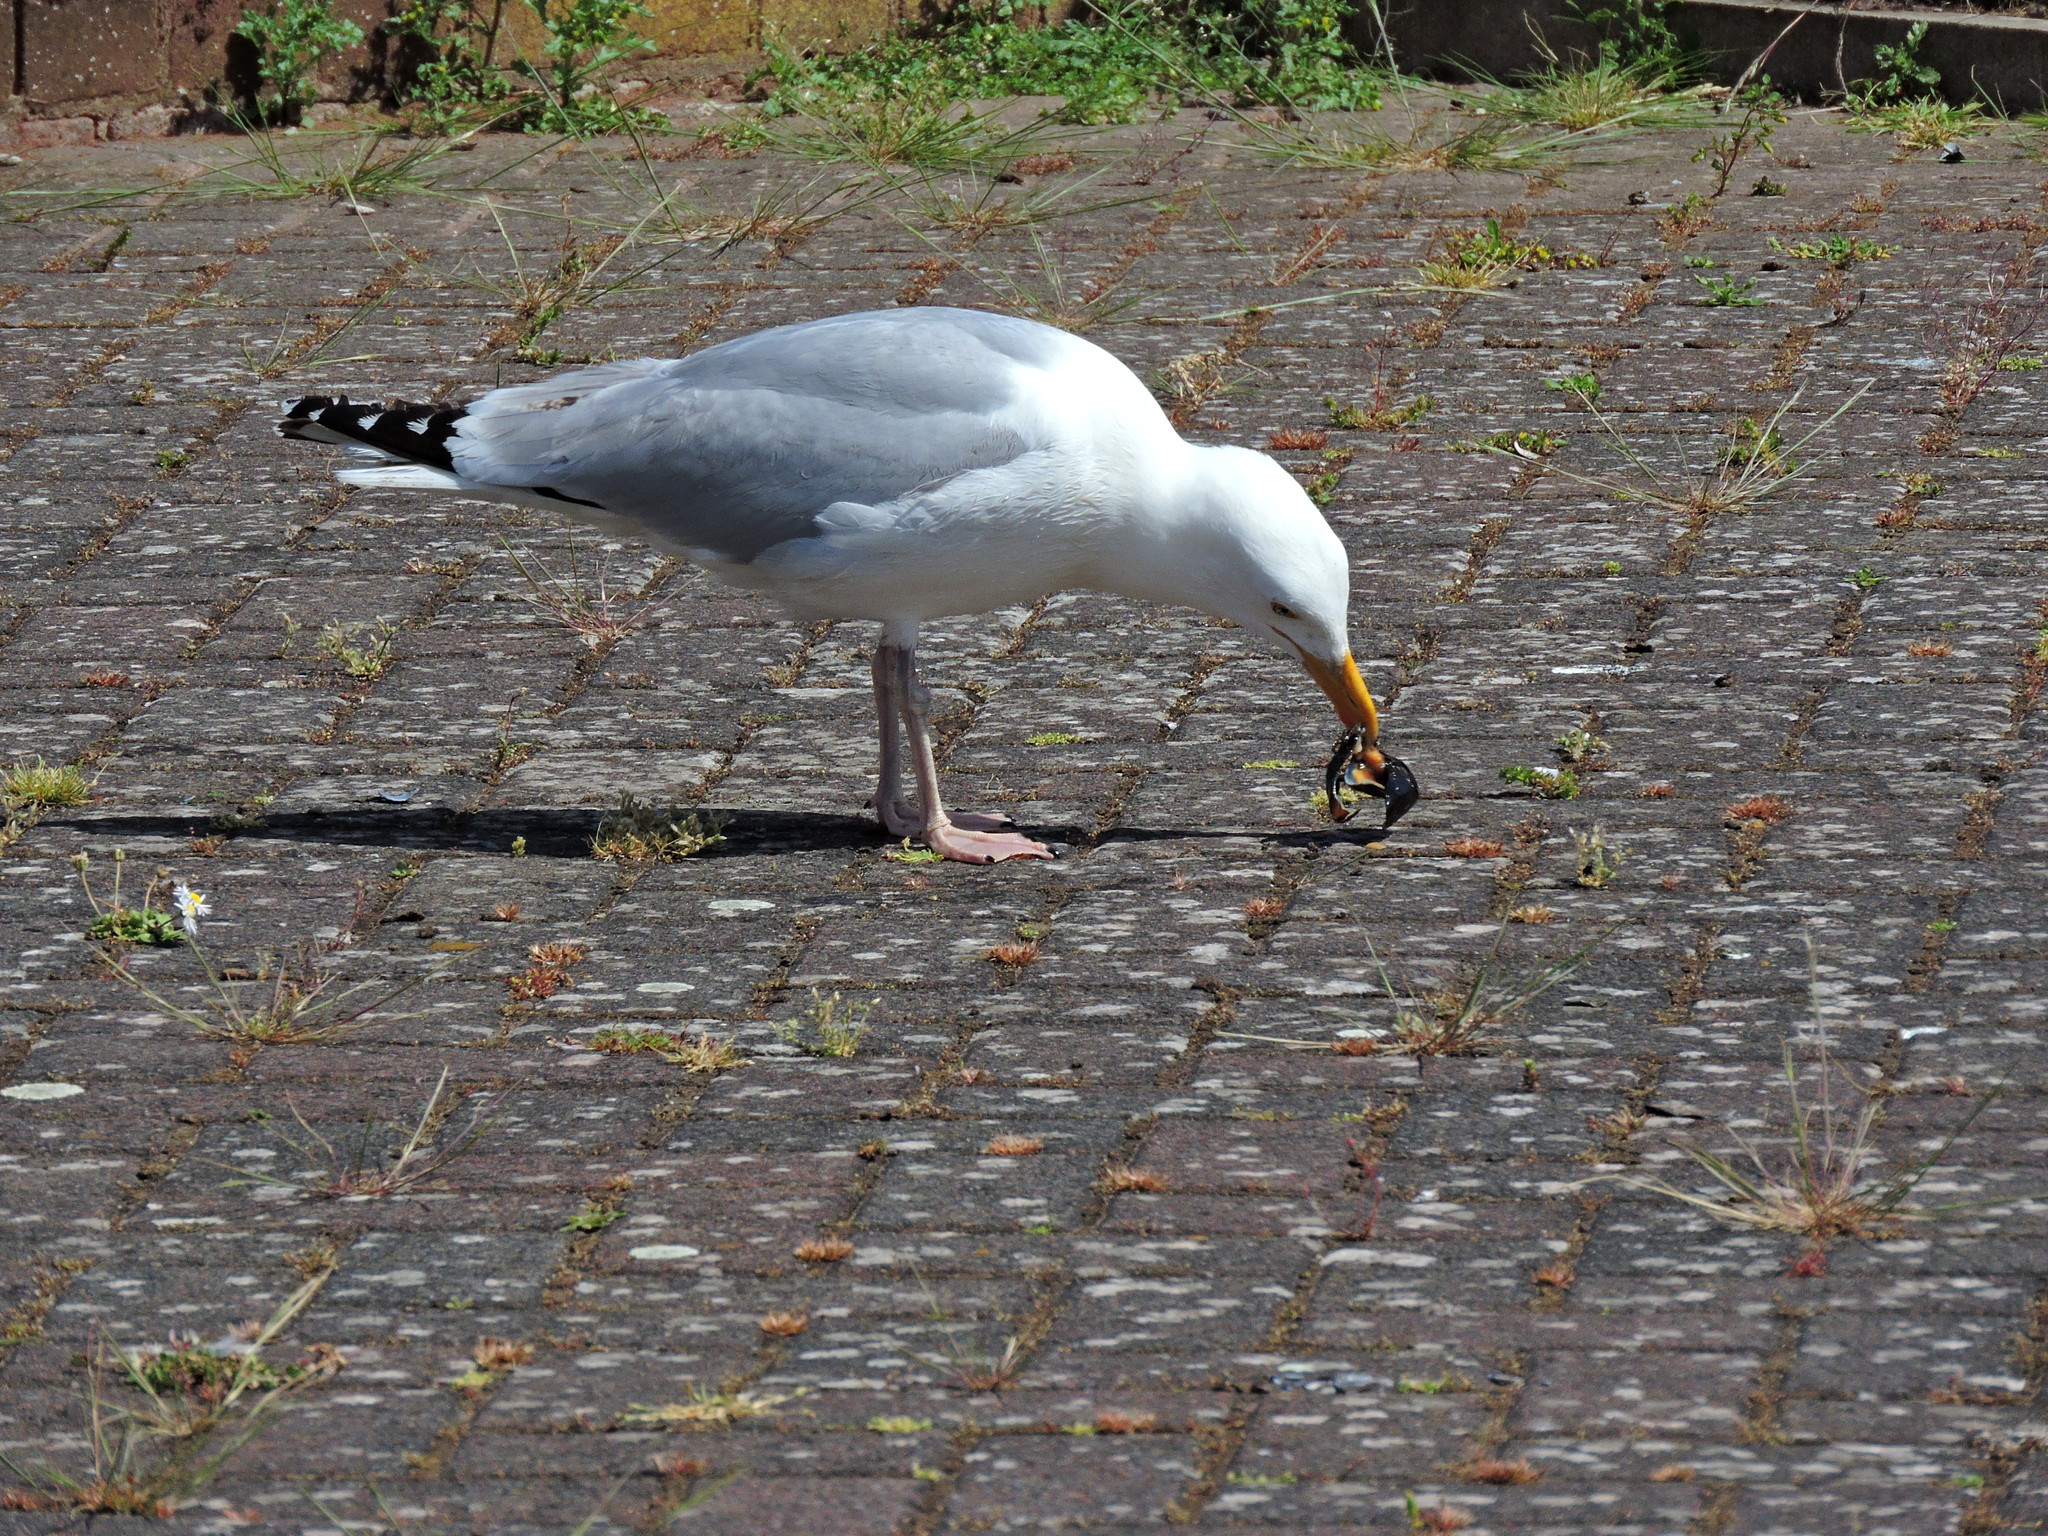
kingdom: Animalia
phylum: Chordata
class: Aves
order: Charadriiformes
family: Laridae
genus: Larus
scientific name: Larus argentatus
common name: Herring gull
